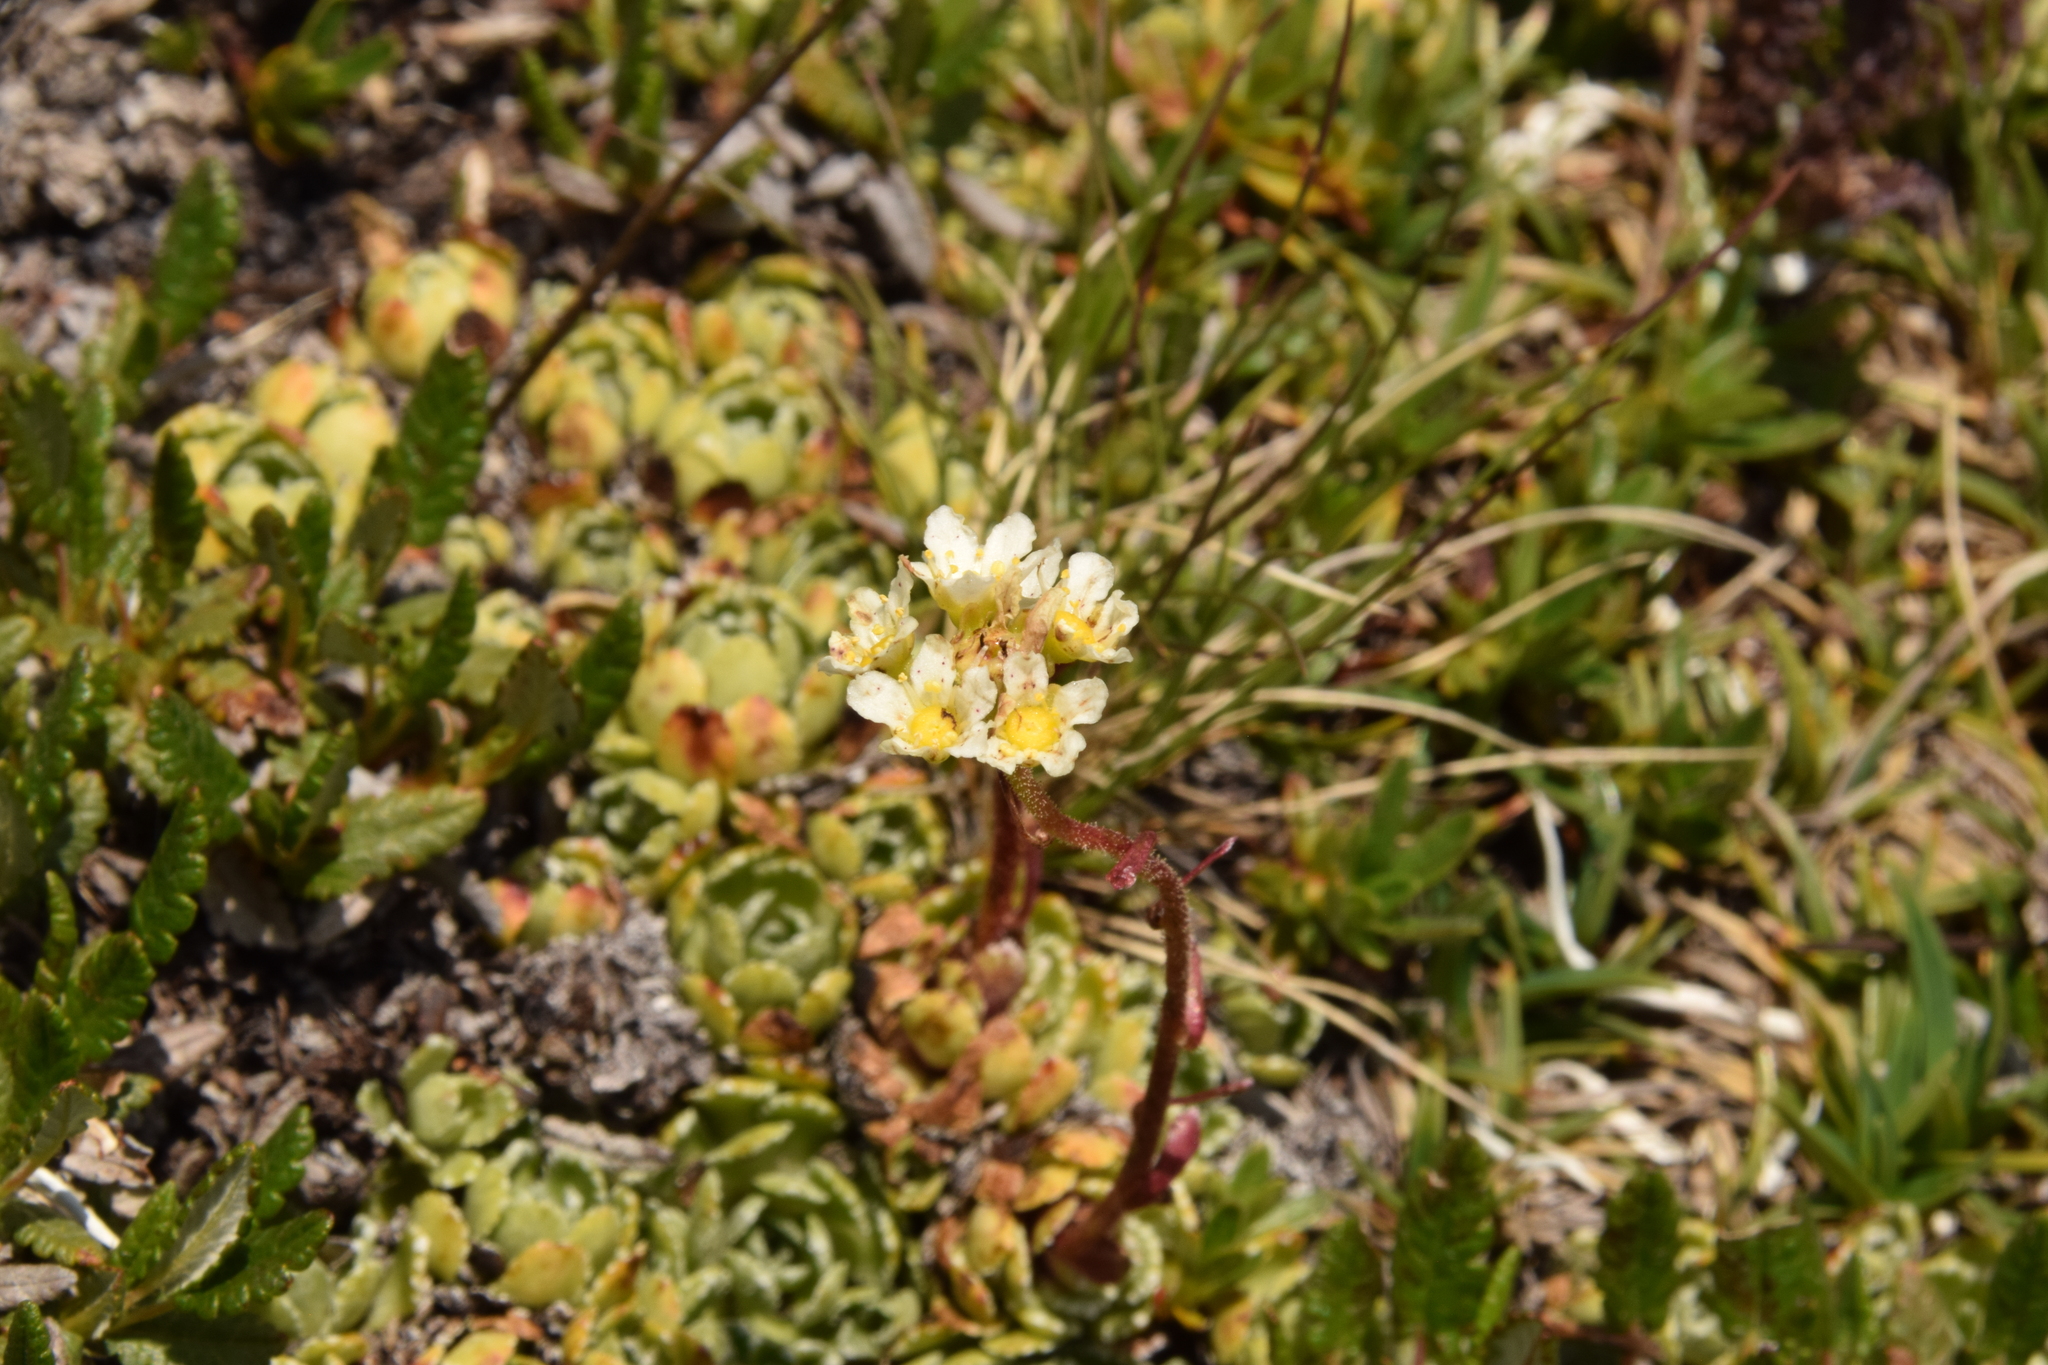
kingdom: Plantae
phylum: Tracheophyta
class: Magnoliopsida
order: Saxifragales
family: Saxifragaceae
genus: Saxifraga
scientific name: Saxifraga paniculata
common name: Livelong saxifrage
